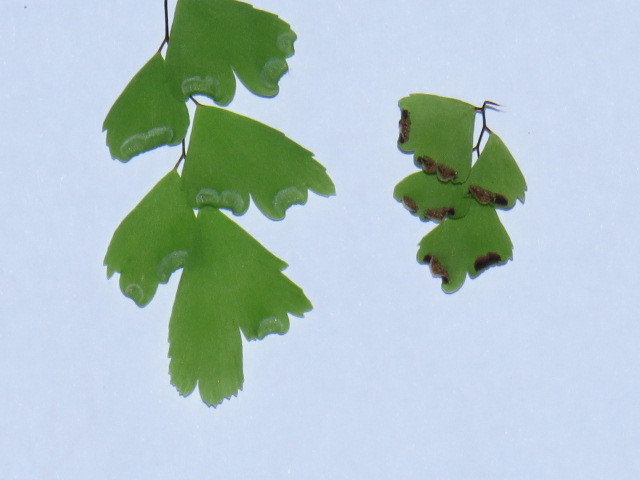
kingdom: Plantae
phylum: Tracheophyta
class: Polypodiopsida
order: Polypodiales
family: Pteridaceae
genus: Adiantum
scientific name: Adiantum capillus-veneris
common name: Maidenhair fern
